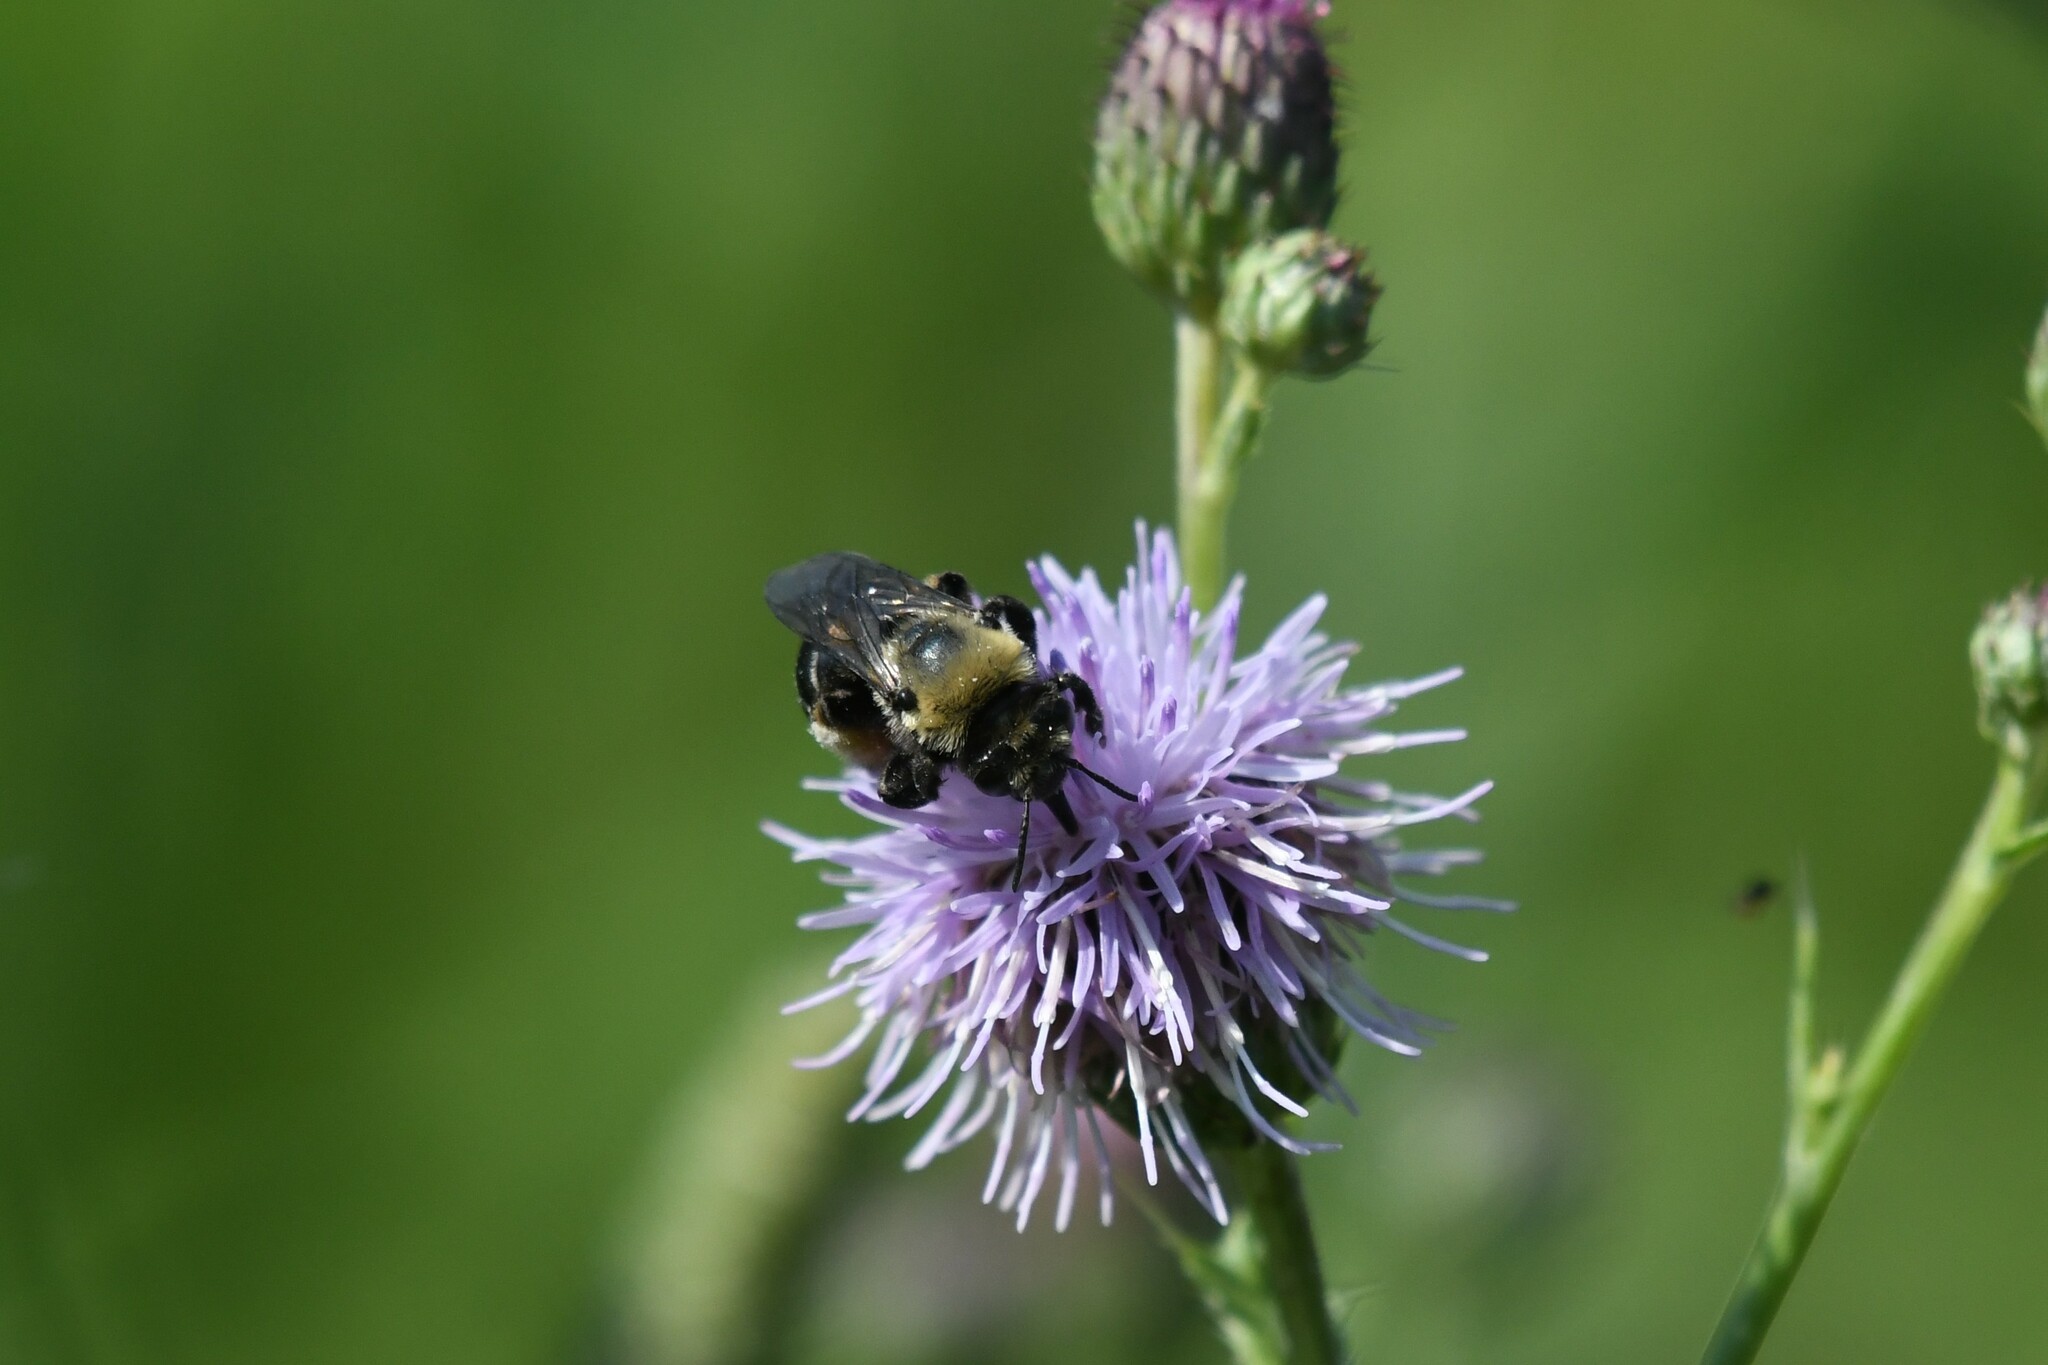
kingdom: Animalia
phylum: Arthropoda
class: Insecta
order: Hymenoptera
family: Apidae
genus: Melissodes
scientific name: Melissodes desponsus
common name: Thistle long-horned bee
